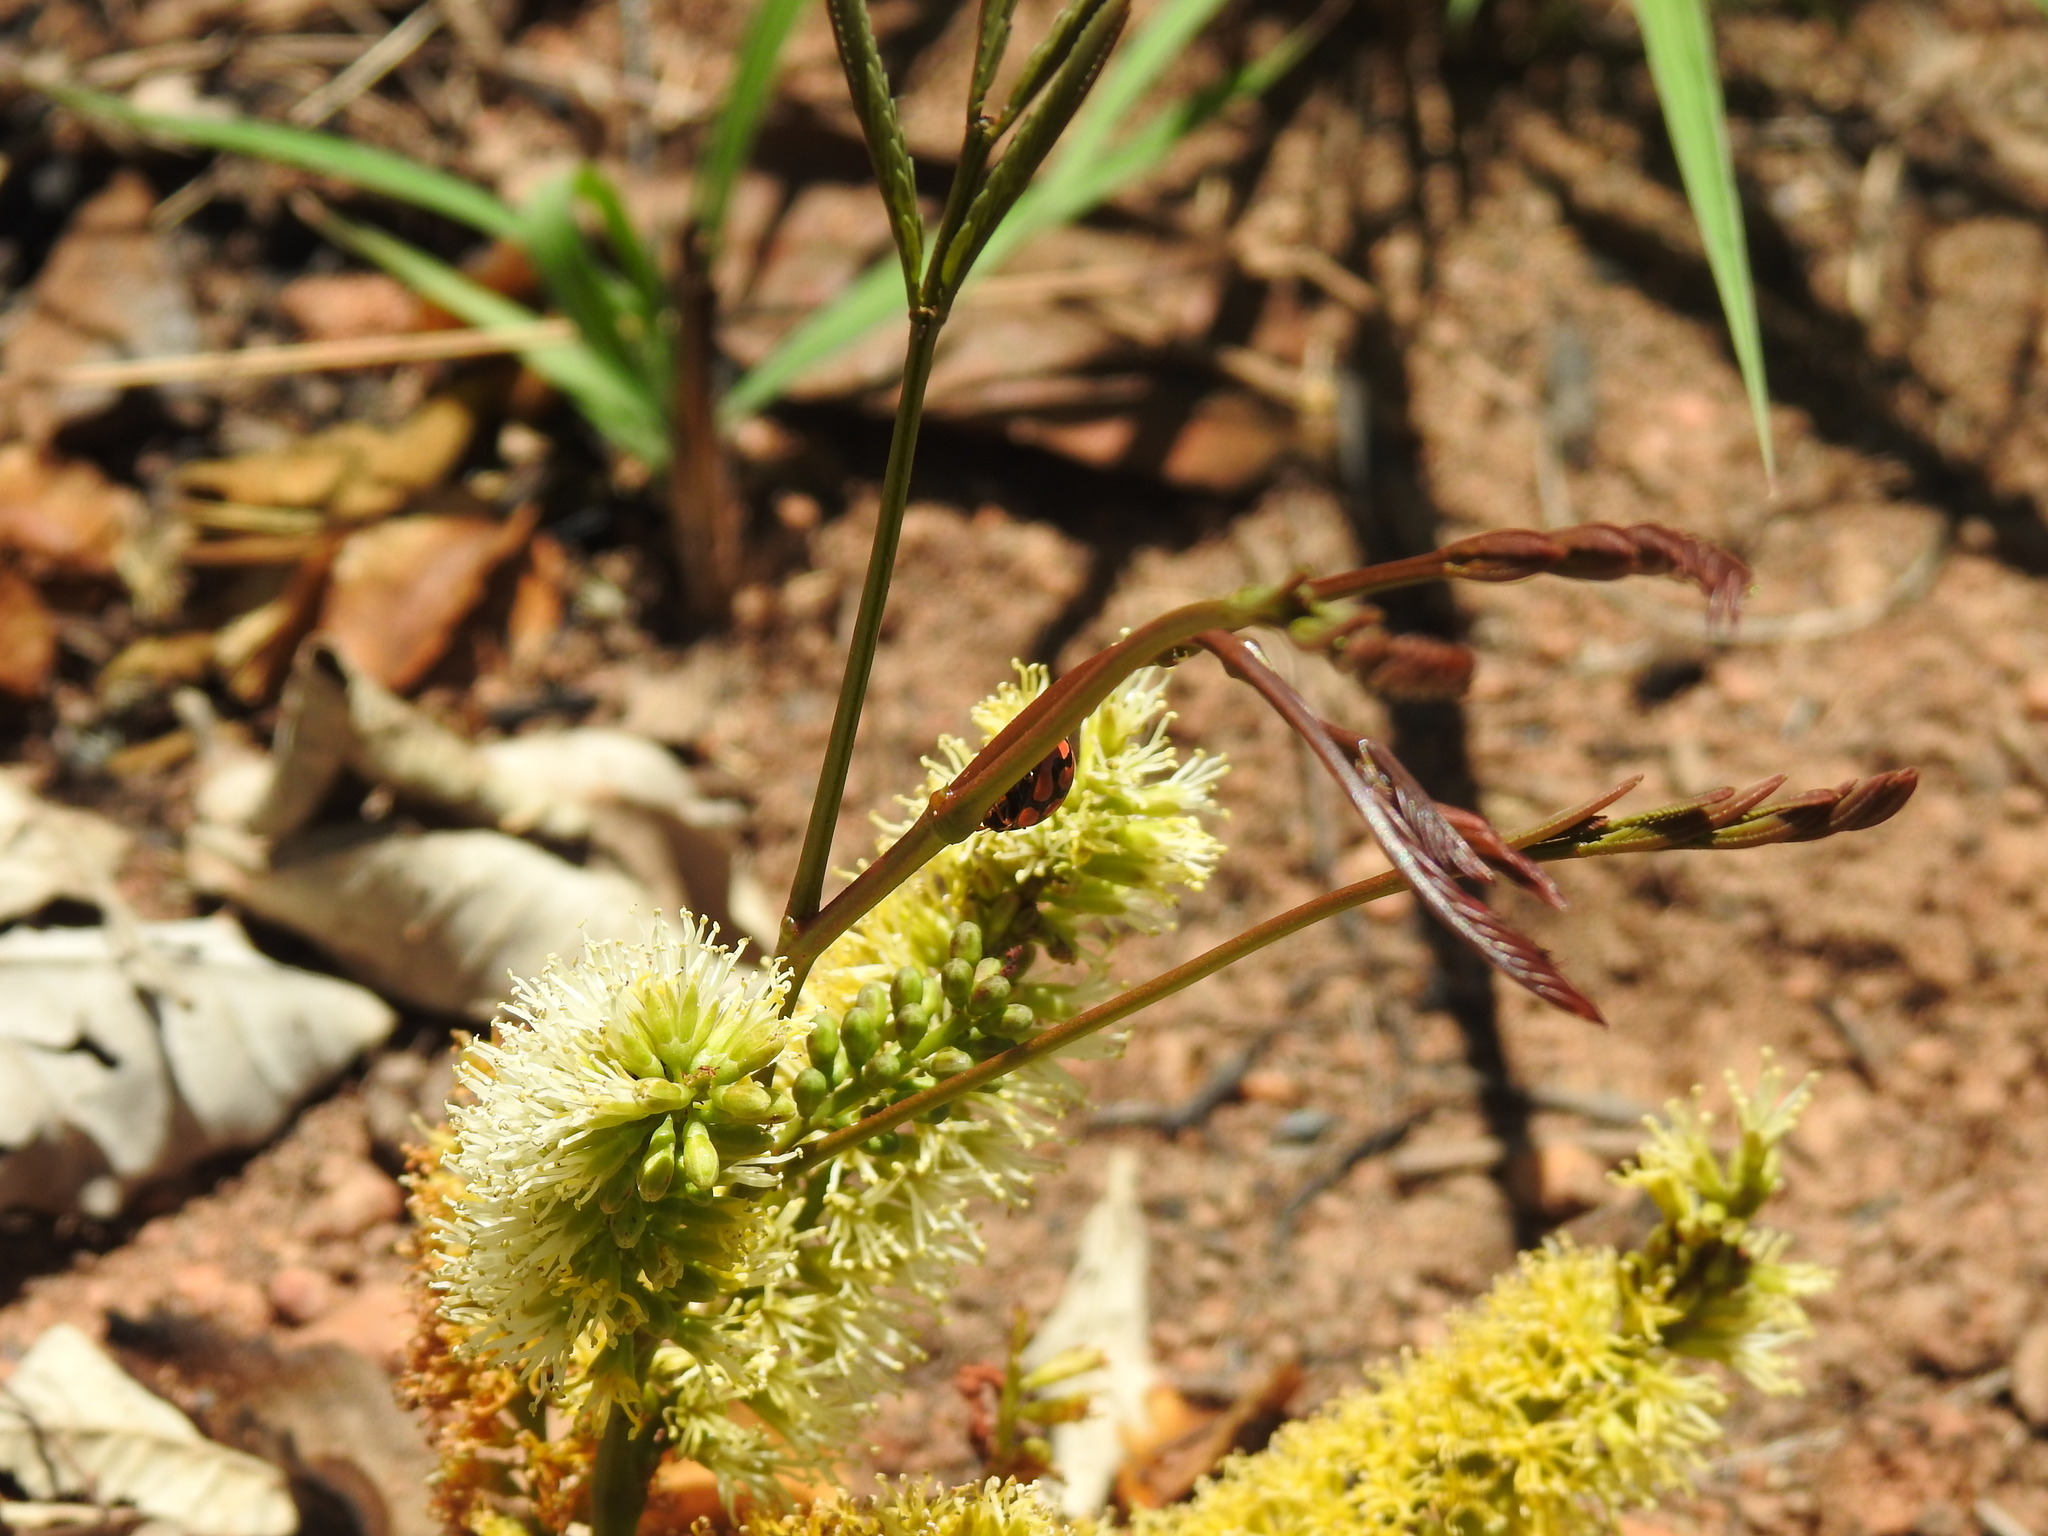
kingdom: Plantae
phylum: Tracheophyta
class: Magnoliopsida
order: Fabales
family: Fabaceae
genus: Elephantorrhiza
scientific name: Elephantorrhiza elephantina
